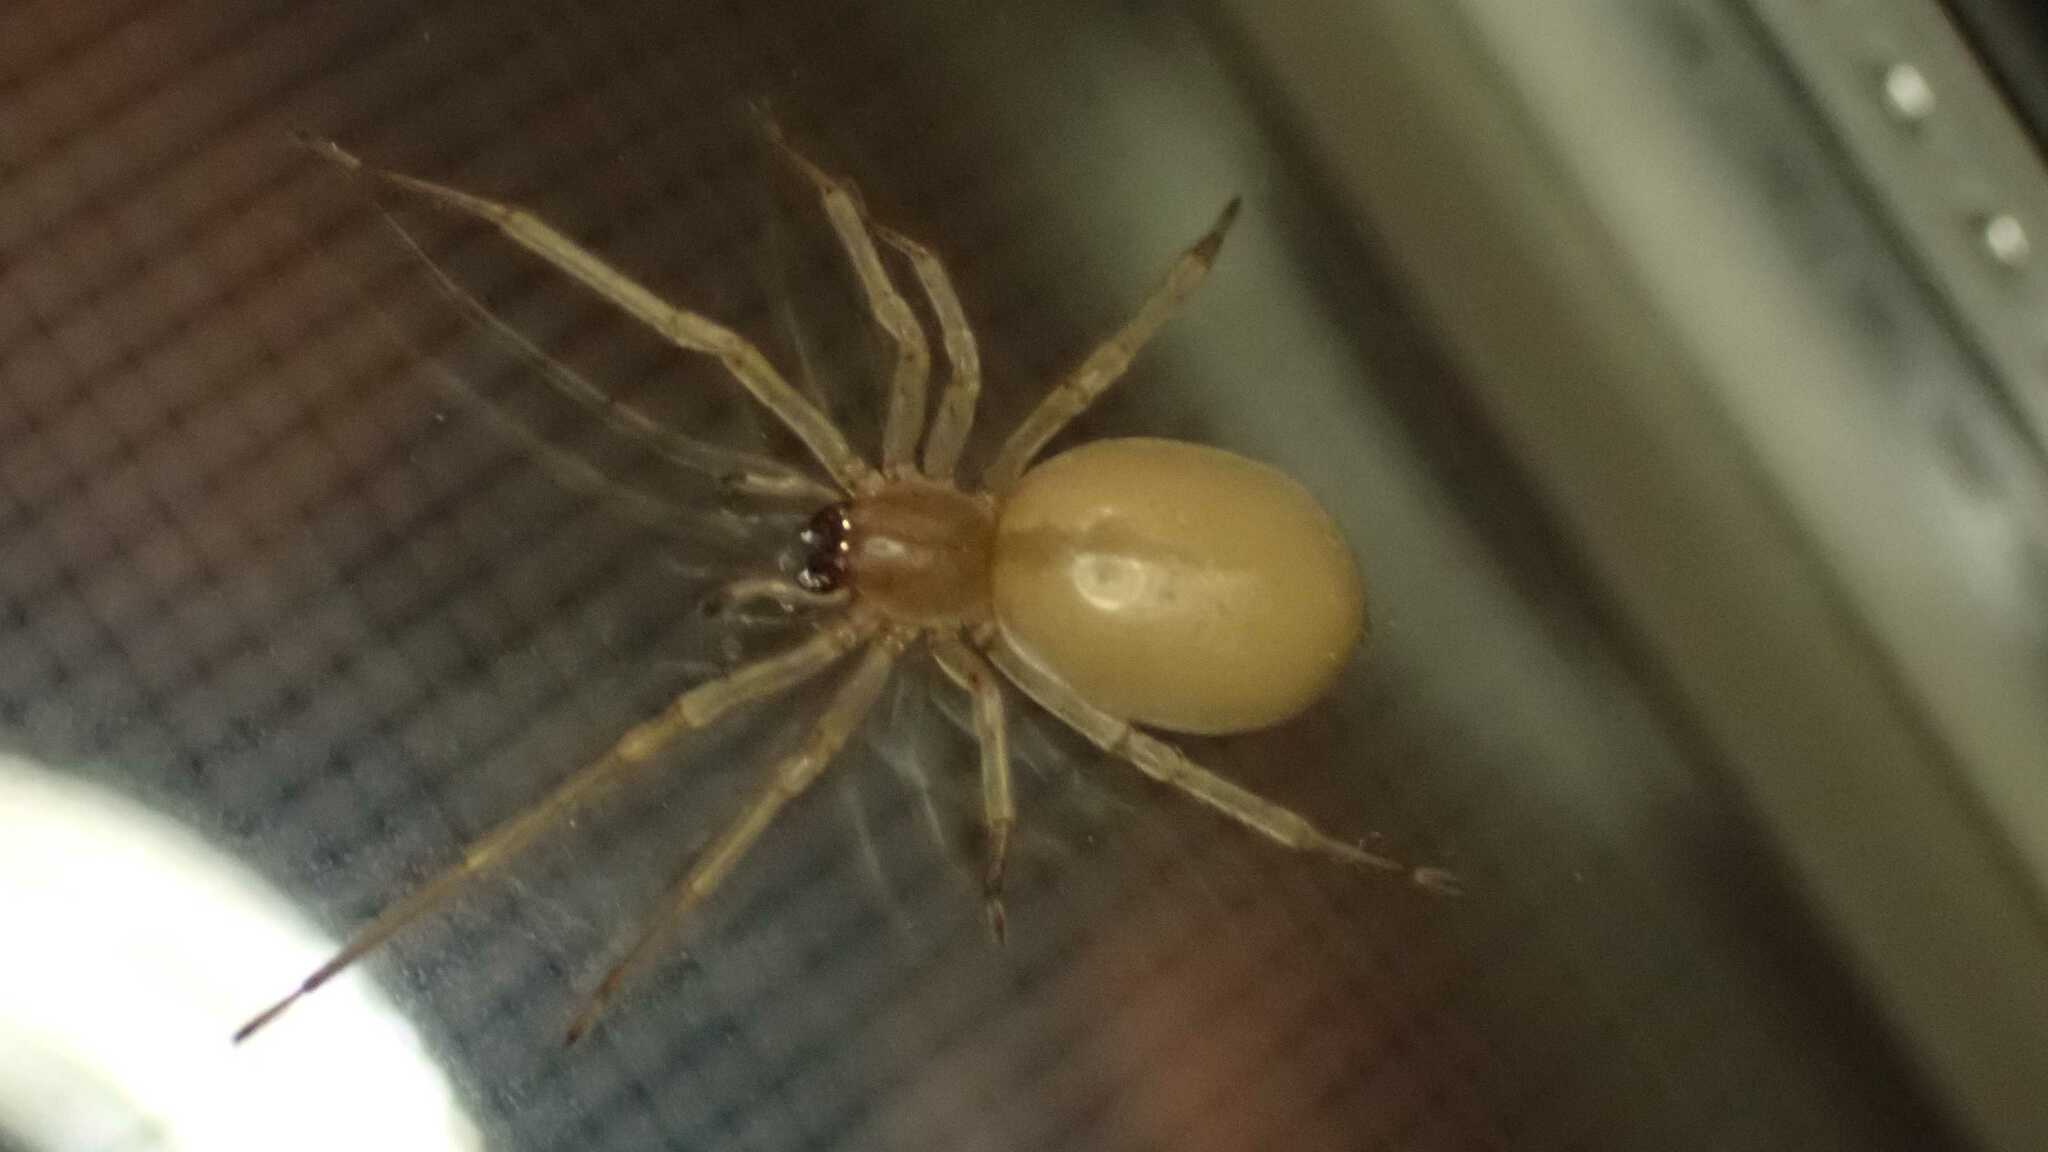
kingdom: Animalia
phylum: Arthropoda
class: Arachnida
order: Araneae
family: Cheiracanthiidae
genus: Cheiracanthium
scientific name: Cheiracanthium mildei
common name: Northern yellow sac spider
